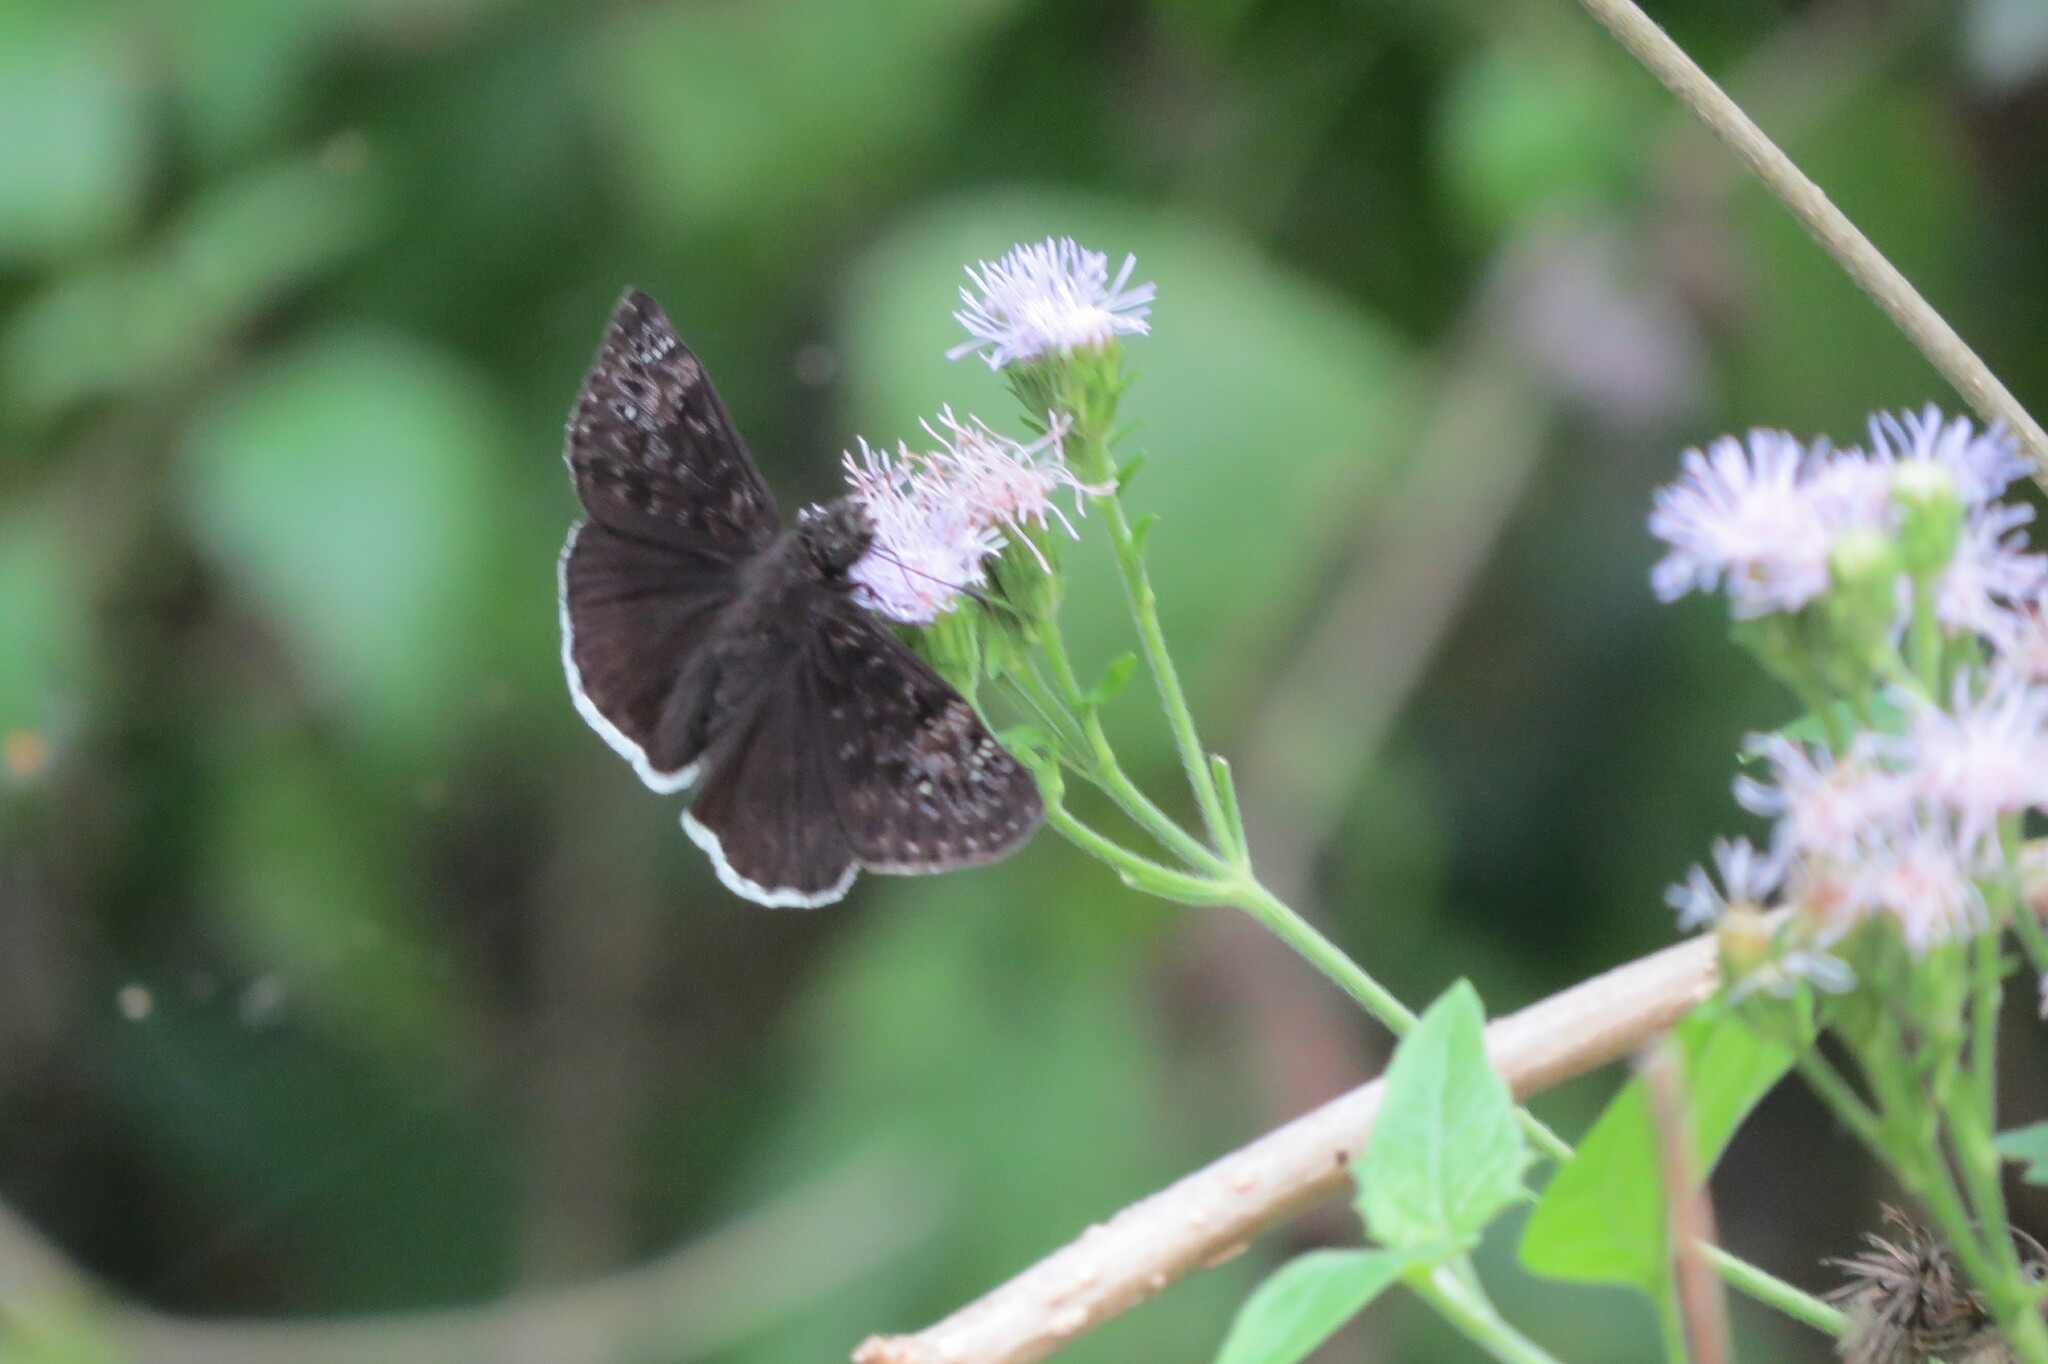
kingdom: Animalia
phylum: Arthropoda
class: Insecta
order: Lepidoptera
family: Hesperiidae
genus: Erynnis
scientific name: Erynnis tristis
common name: Mournful duskywing
